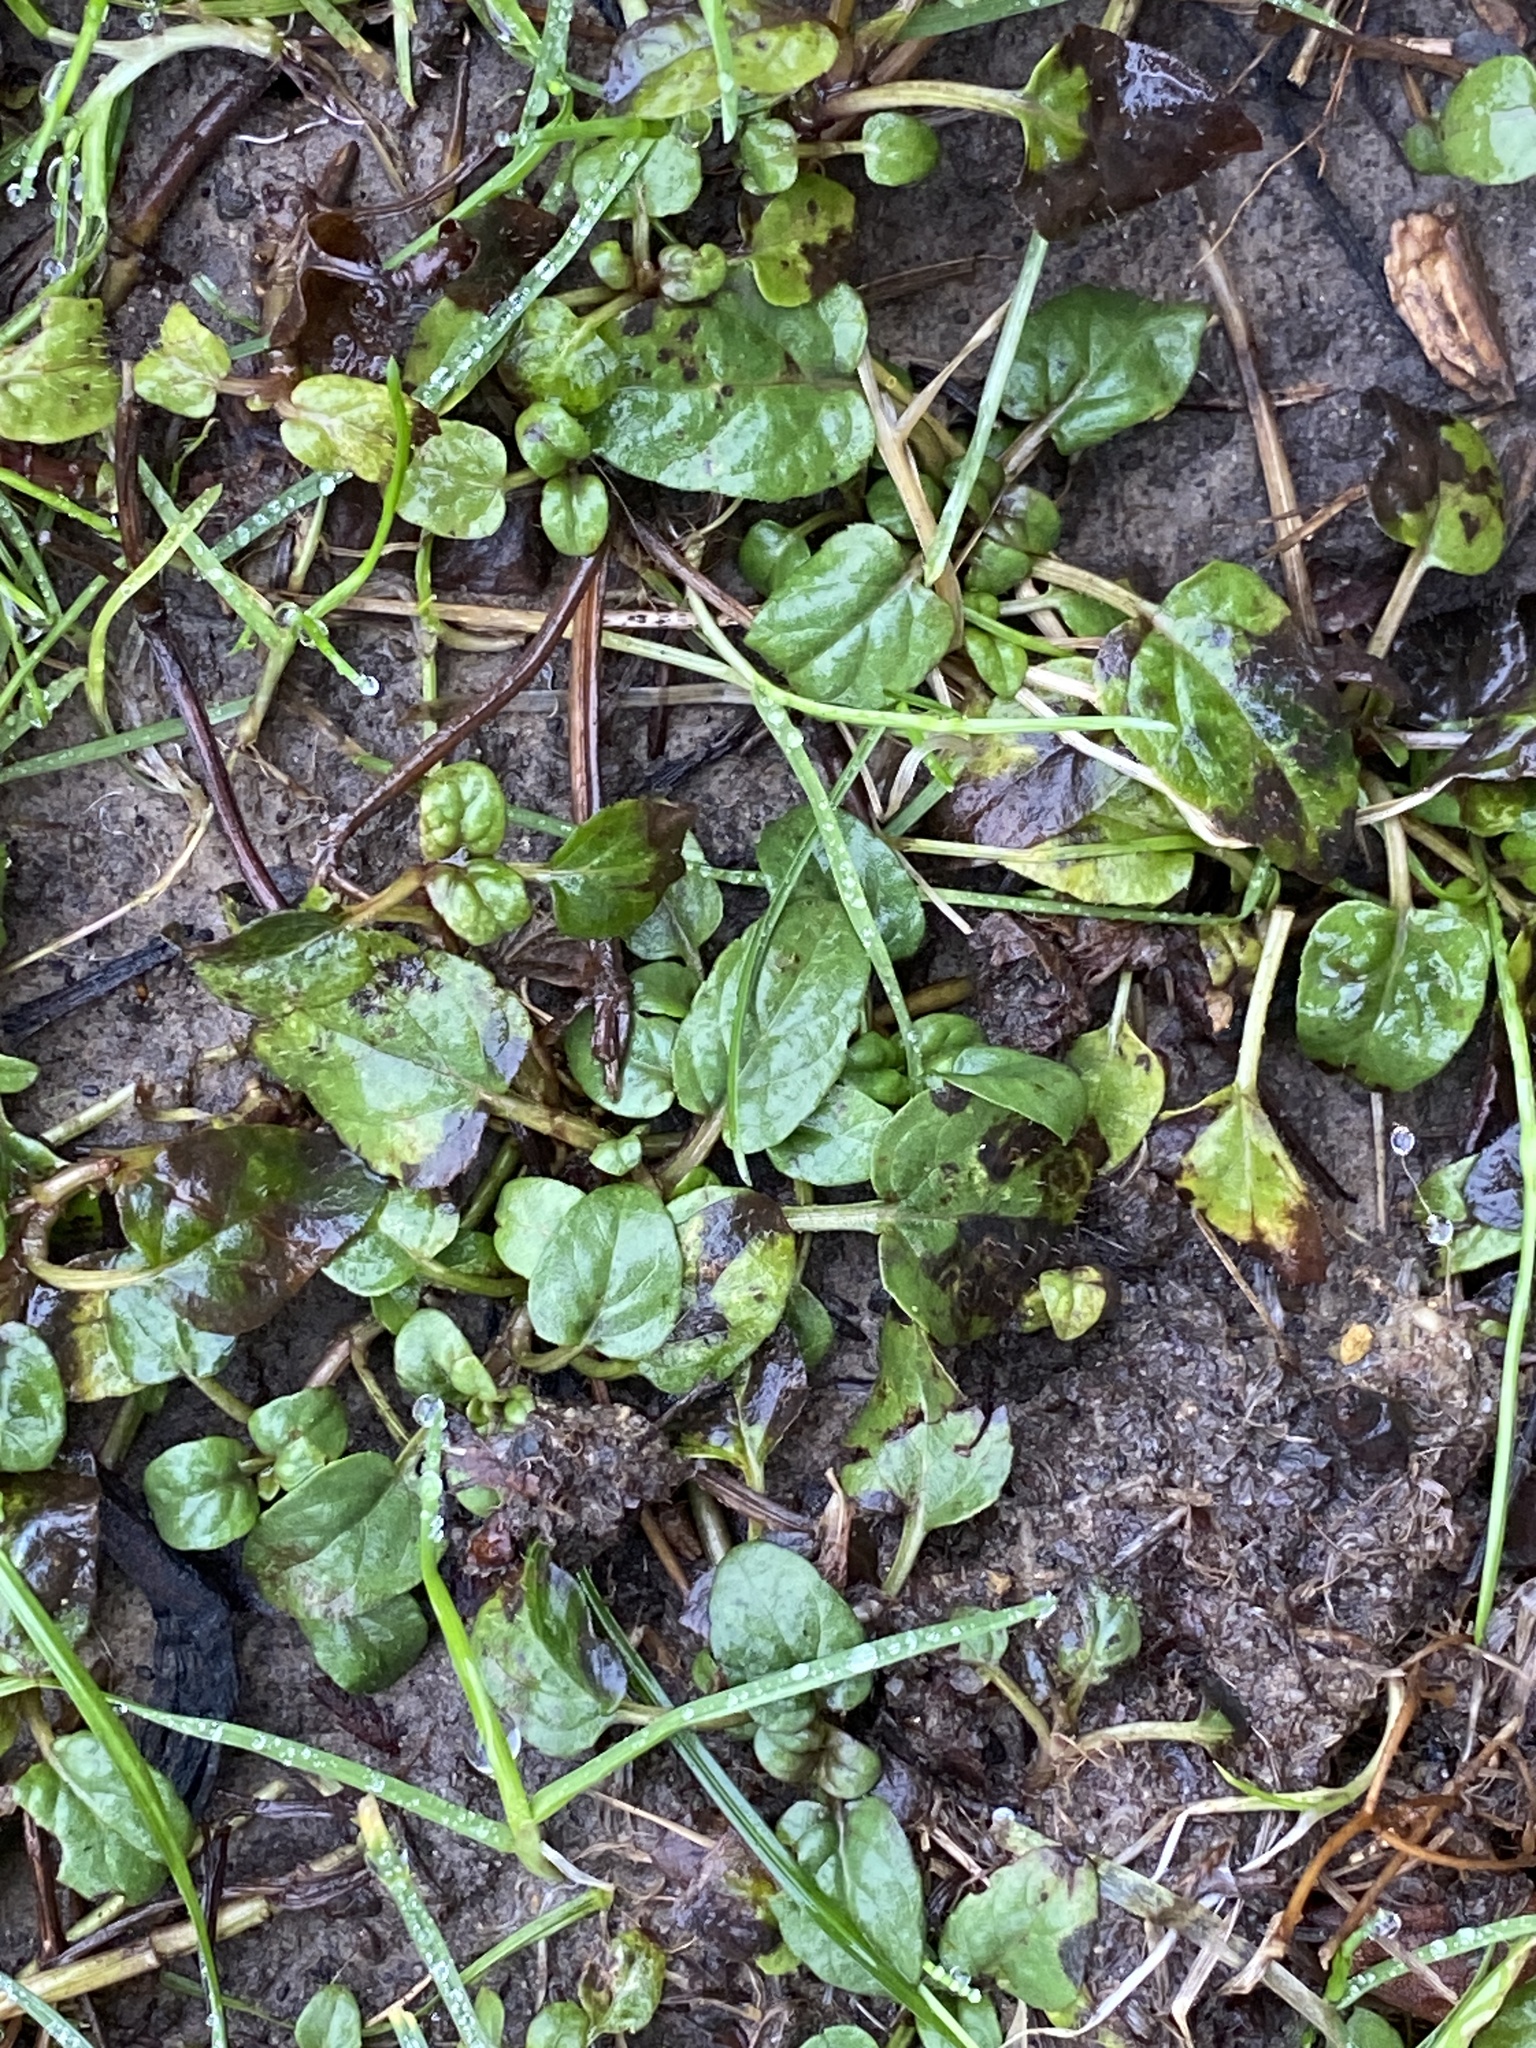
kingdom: Plantae
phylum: Tracheophyta
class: Magnoliopsida
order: Lamiales
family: Lamiaceae
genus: Prunella
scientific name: Prunella vulgaris
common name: Heal-all
